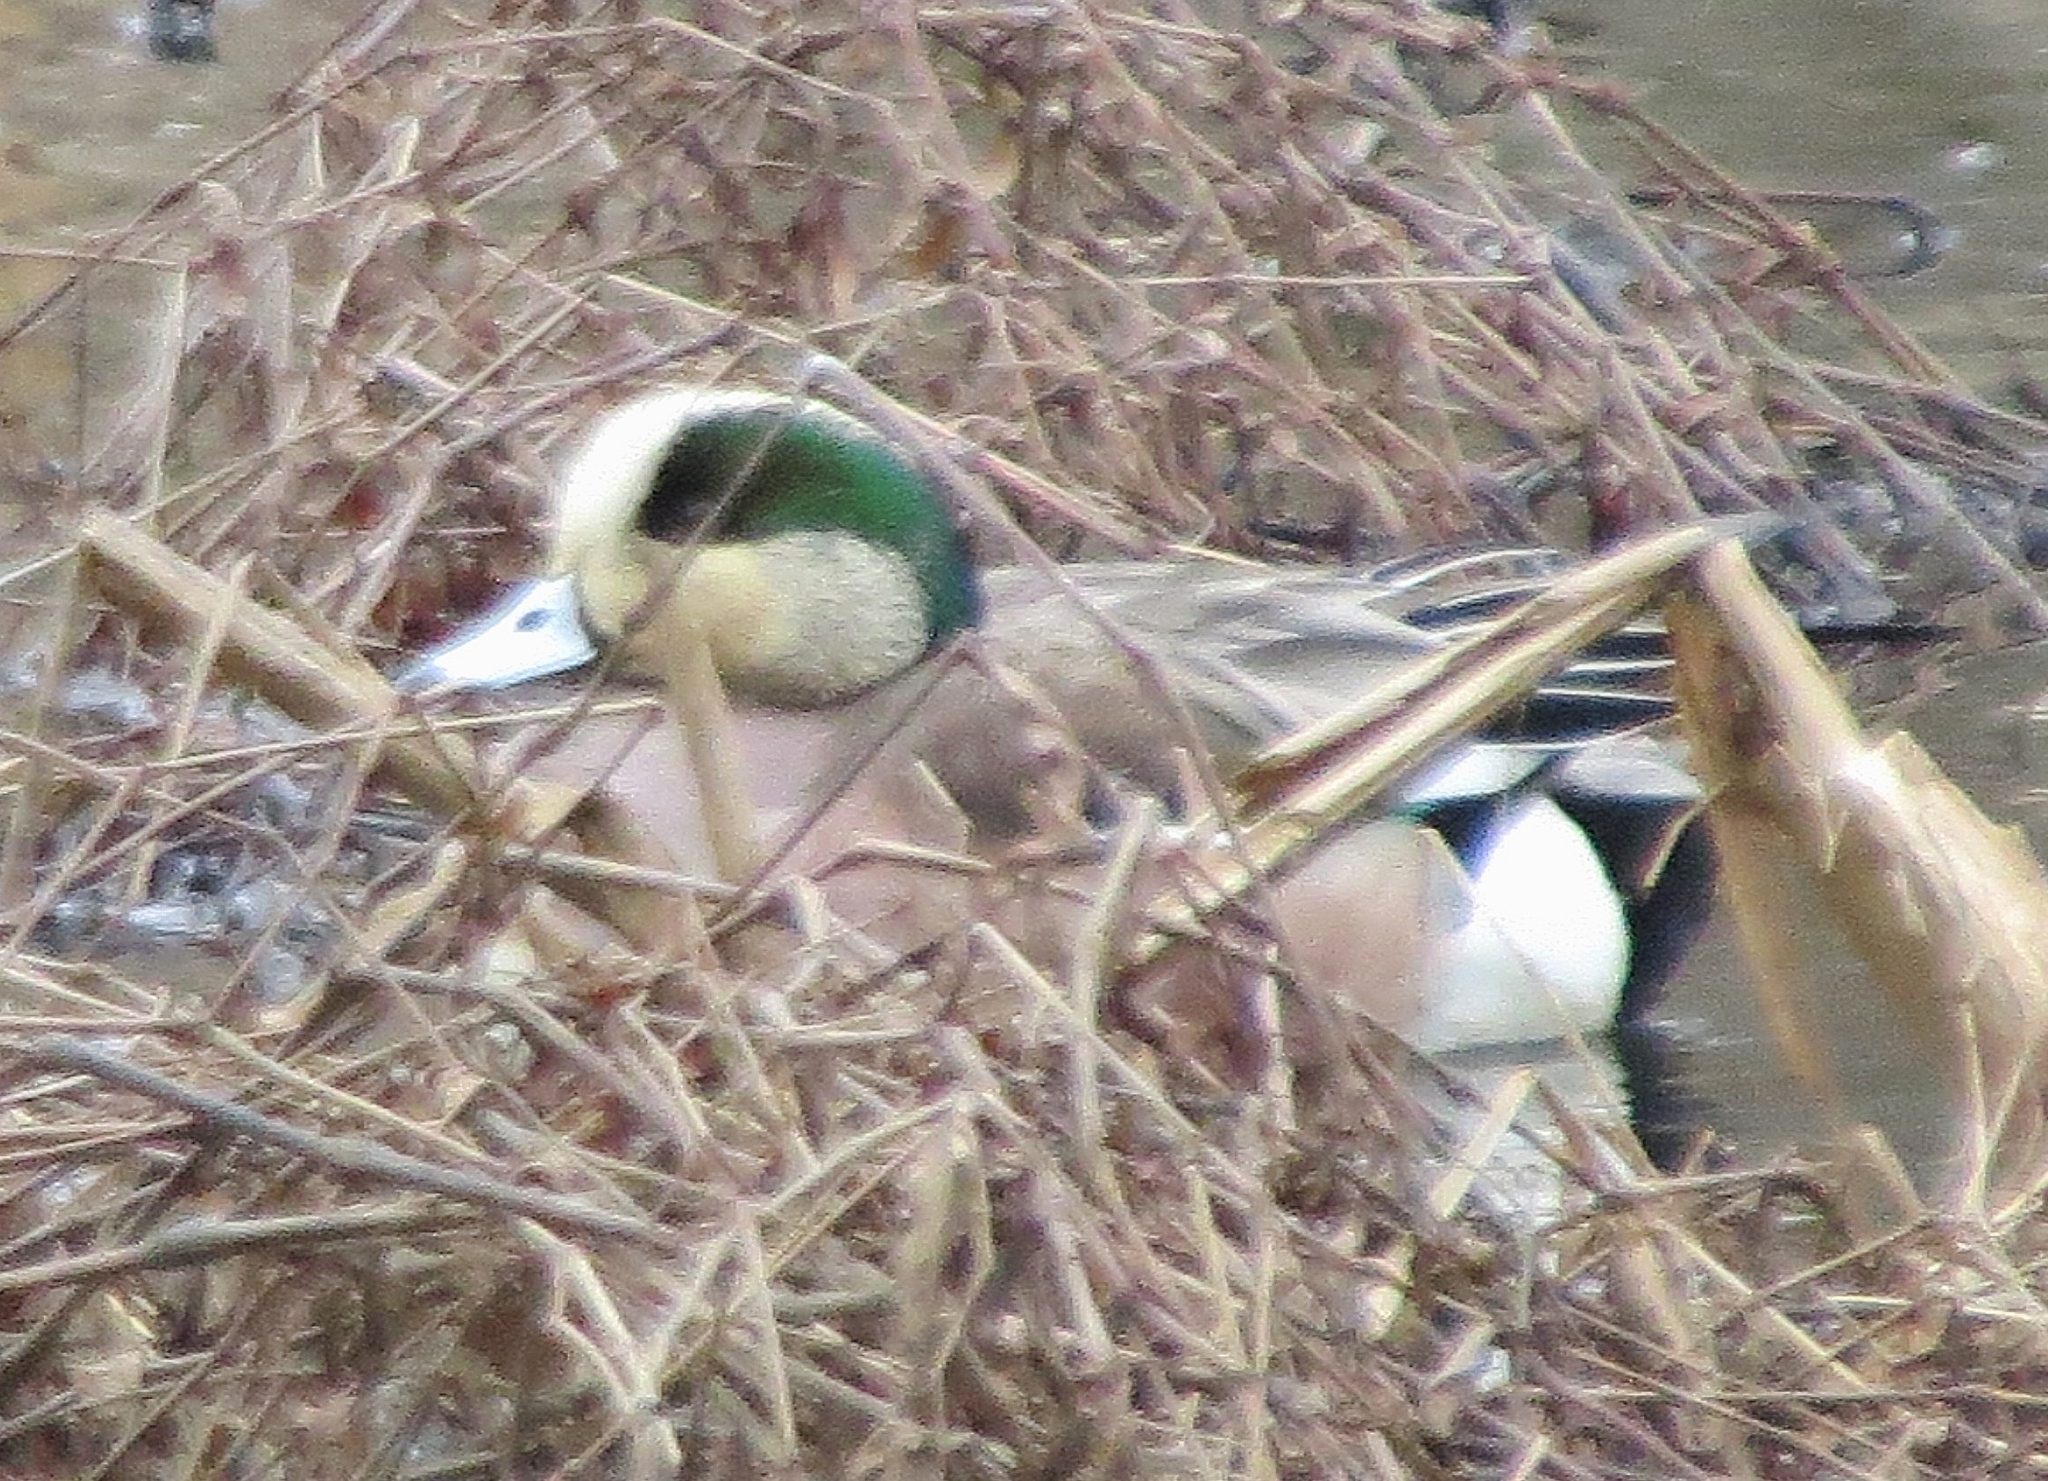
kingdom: Animalia
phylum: Chordata
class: Aves
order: Anseriformes
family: Anatidae
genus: Mareca
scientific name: Mareca americana
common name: American wigeon
